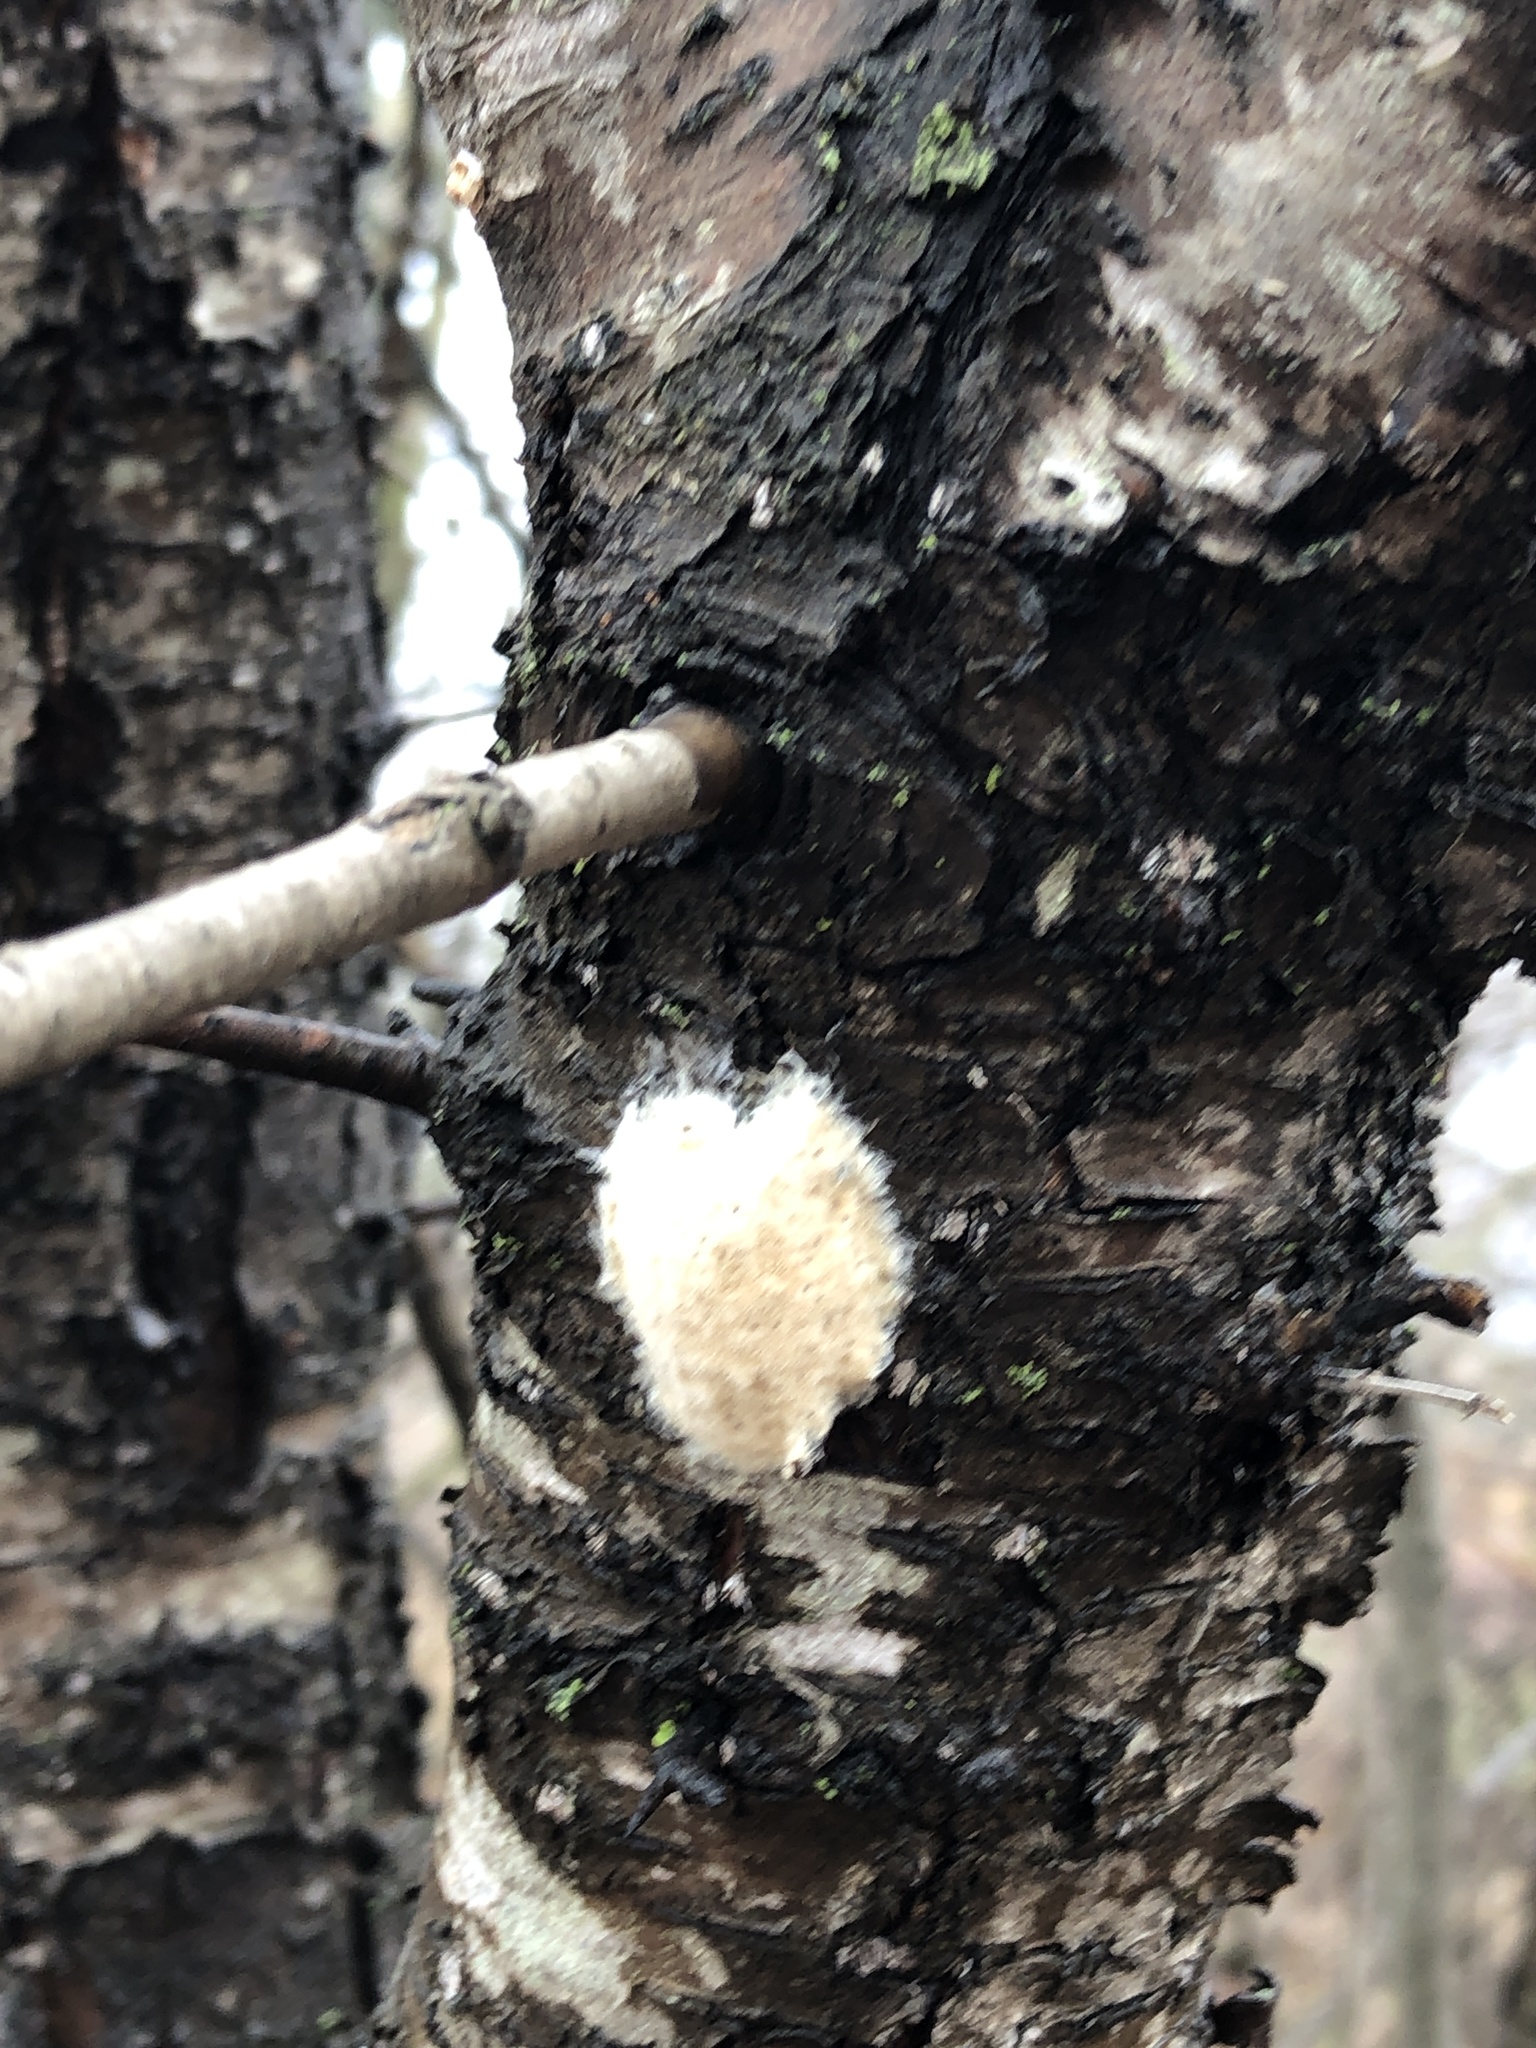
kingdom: Animalia
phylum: Arthropoda
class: Insecta
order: Lepidoptera
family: Erebidae
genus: Lymantria
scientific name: Lymantria dispar
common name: Gypsy moth
